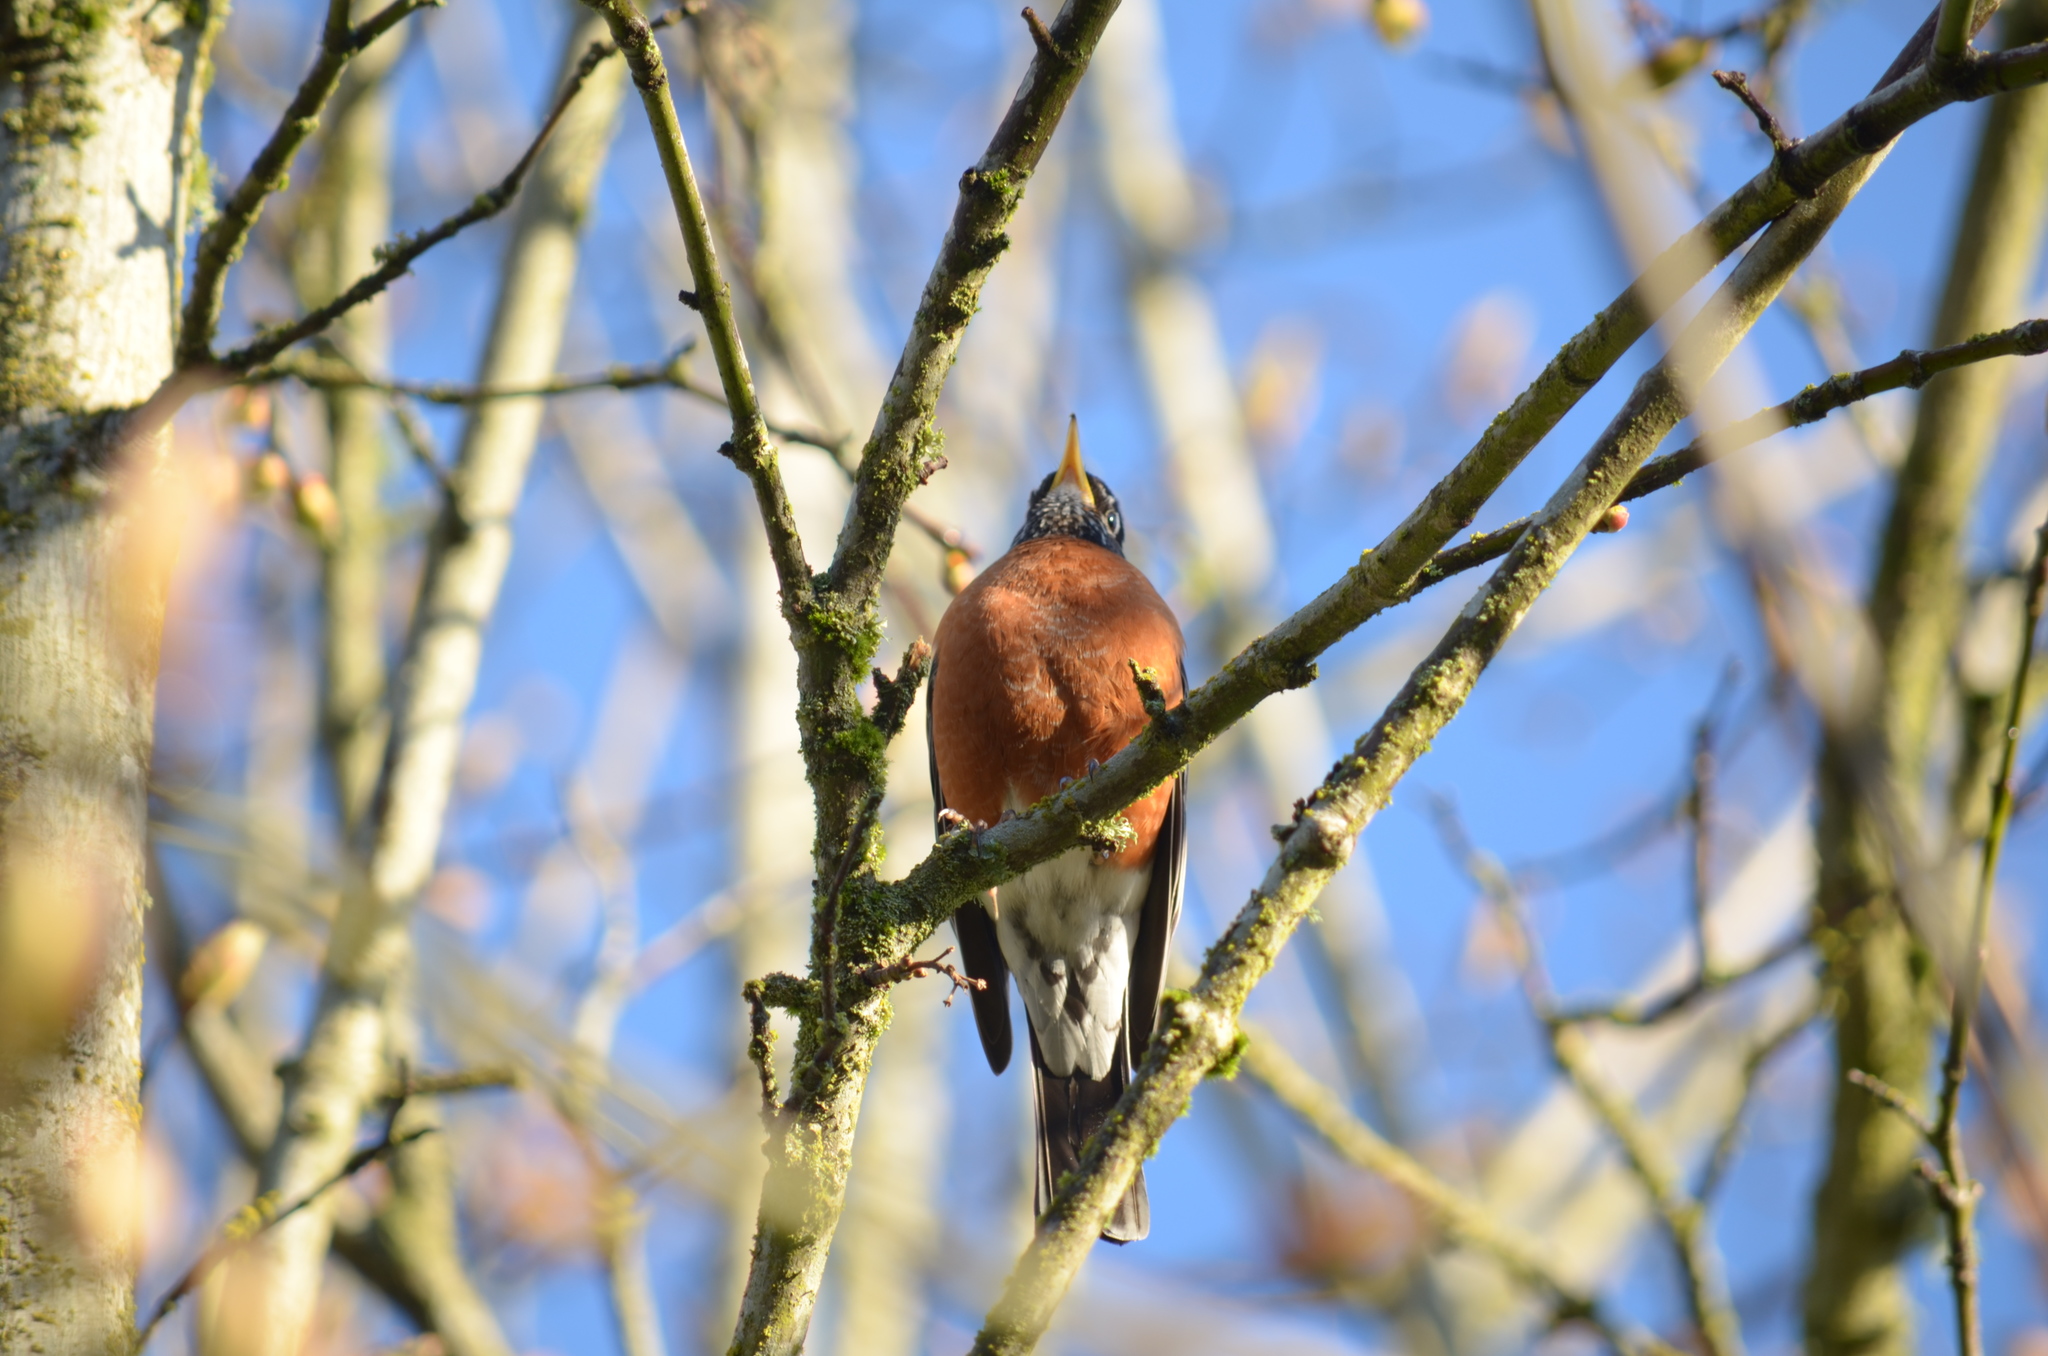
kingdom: Animalia
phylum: Chordata
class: Aves
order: Passeriformes
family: Turdidae
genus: Turdus
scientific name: Turdus migratorius
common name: American robin
